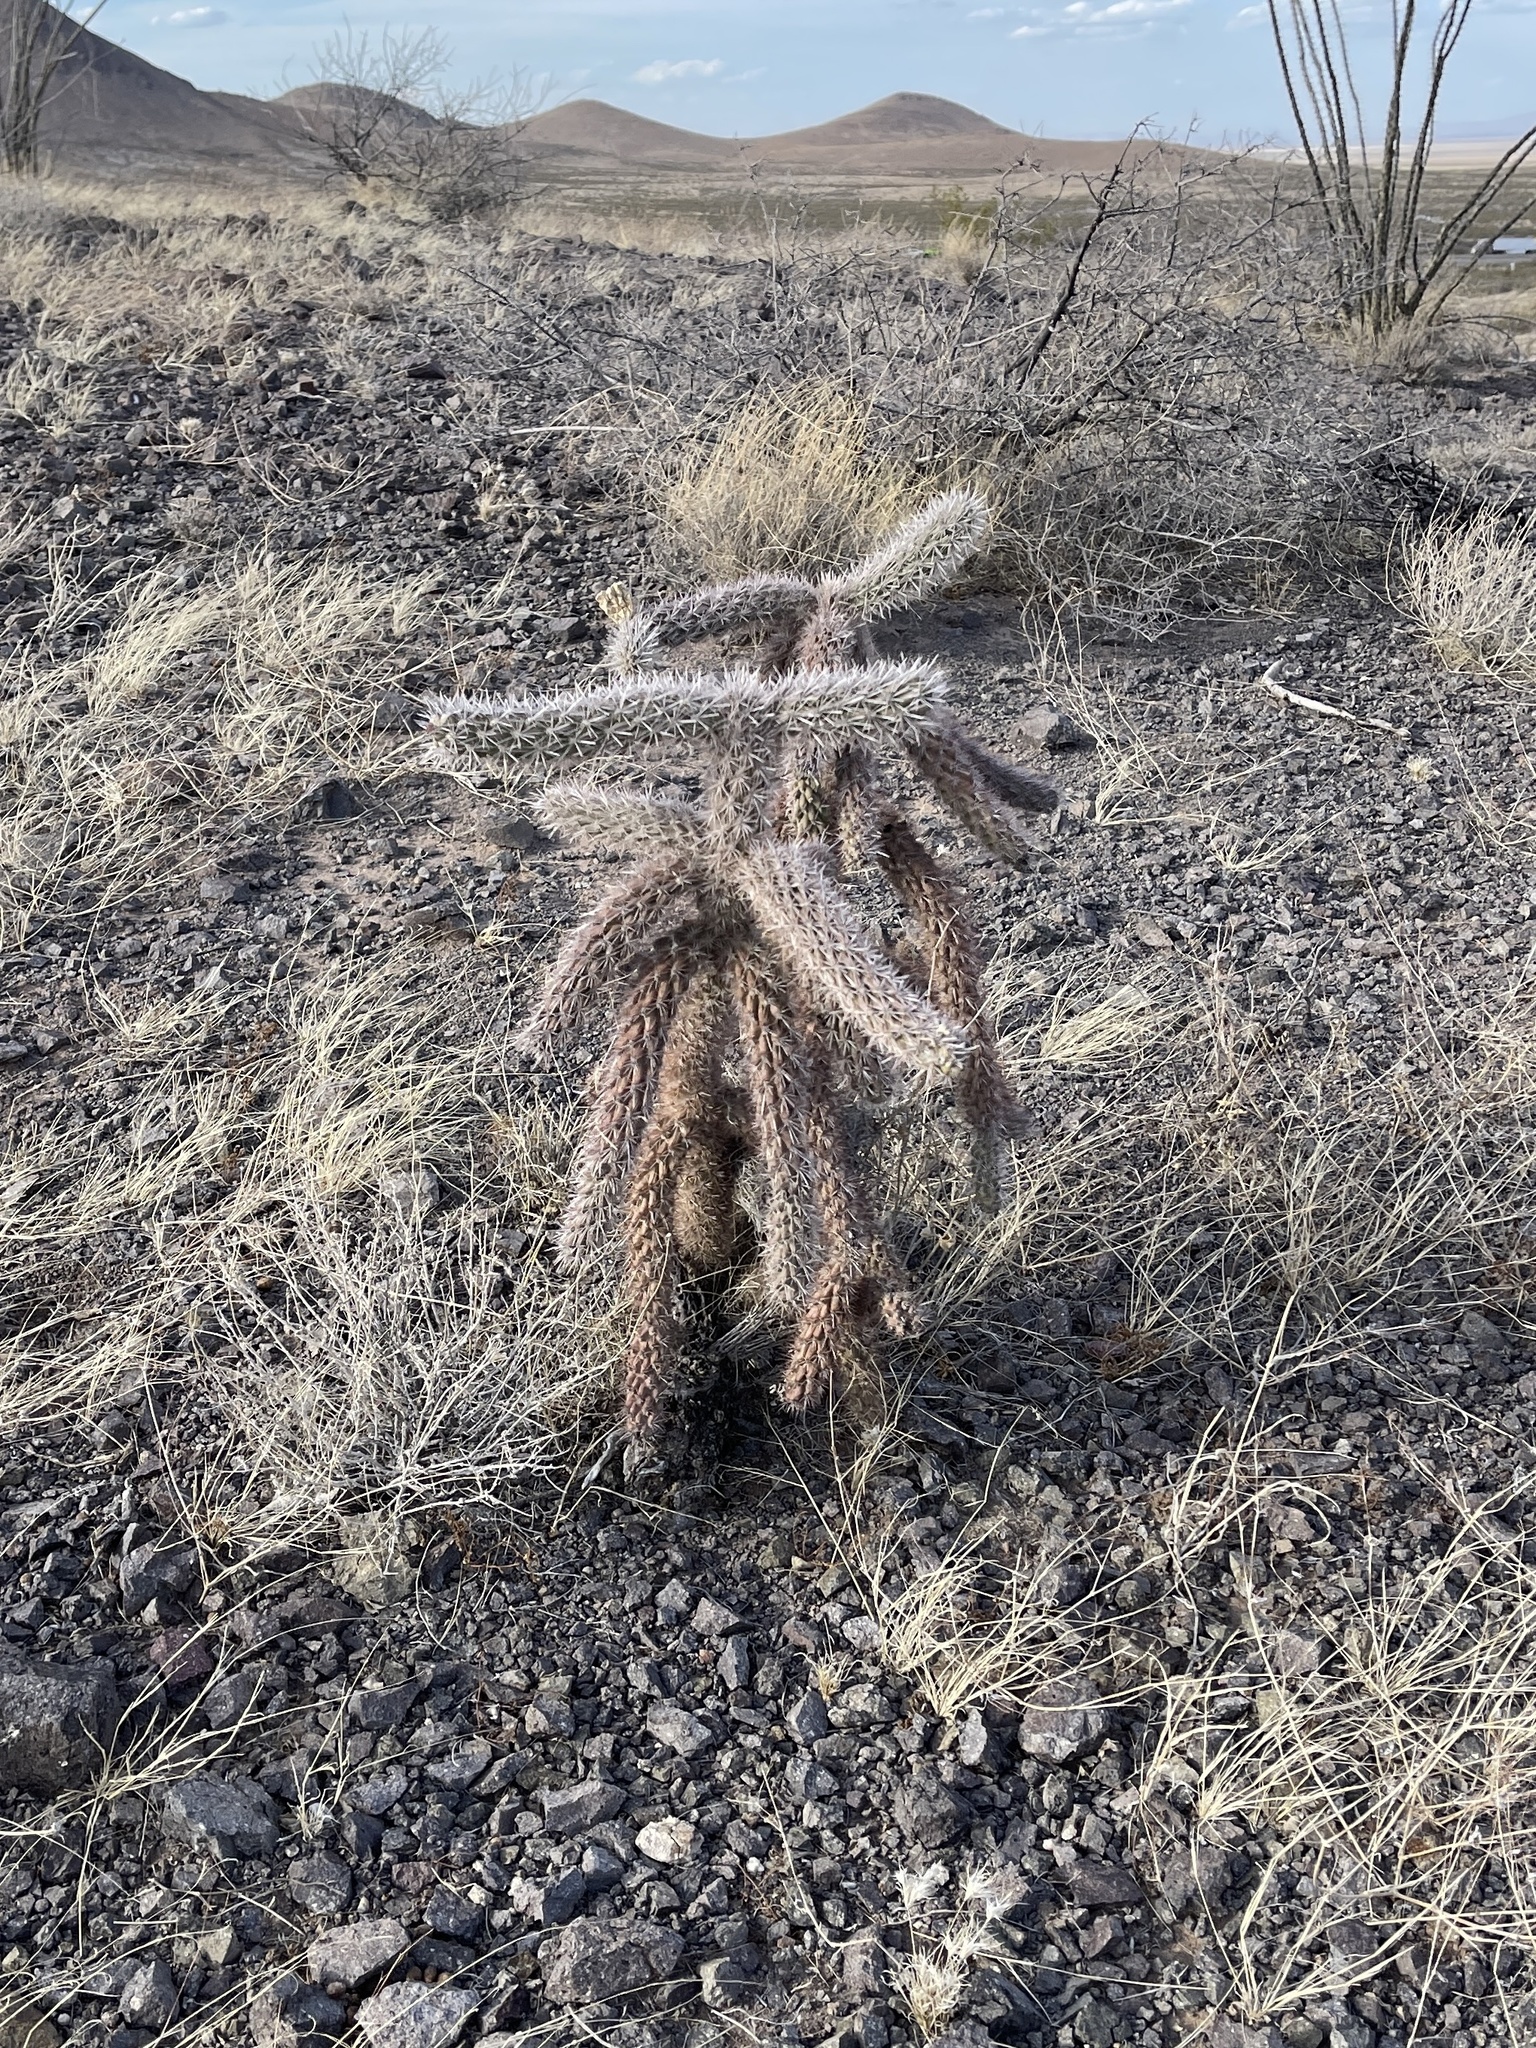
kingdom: Plantae
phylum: Tracheophyta
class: Magnoliopsida
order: Caryophyllales
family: Cactaceae
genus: Cylindropuntia
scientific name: Cylindropuntia imbricata
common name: Candelabrum cactus
